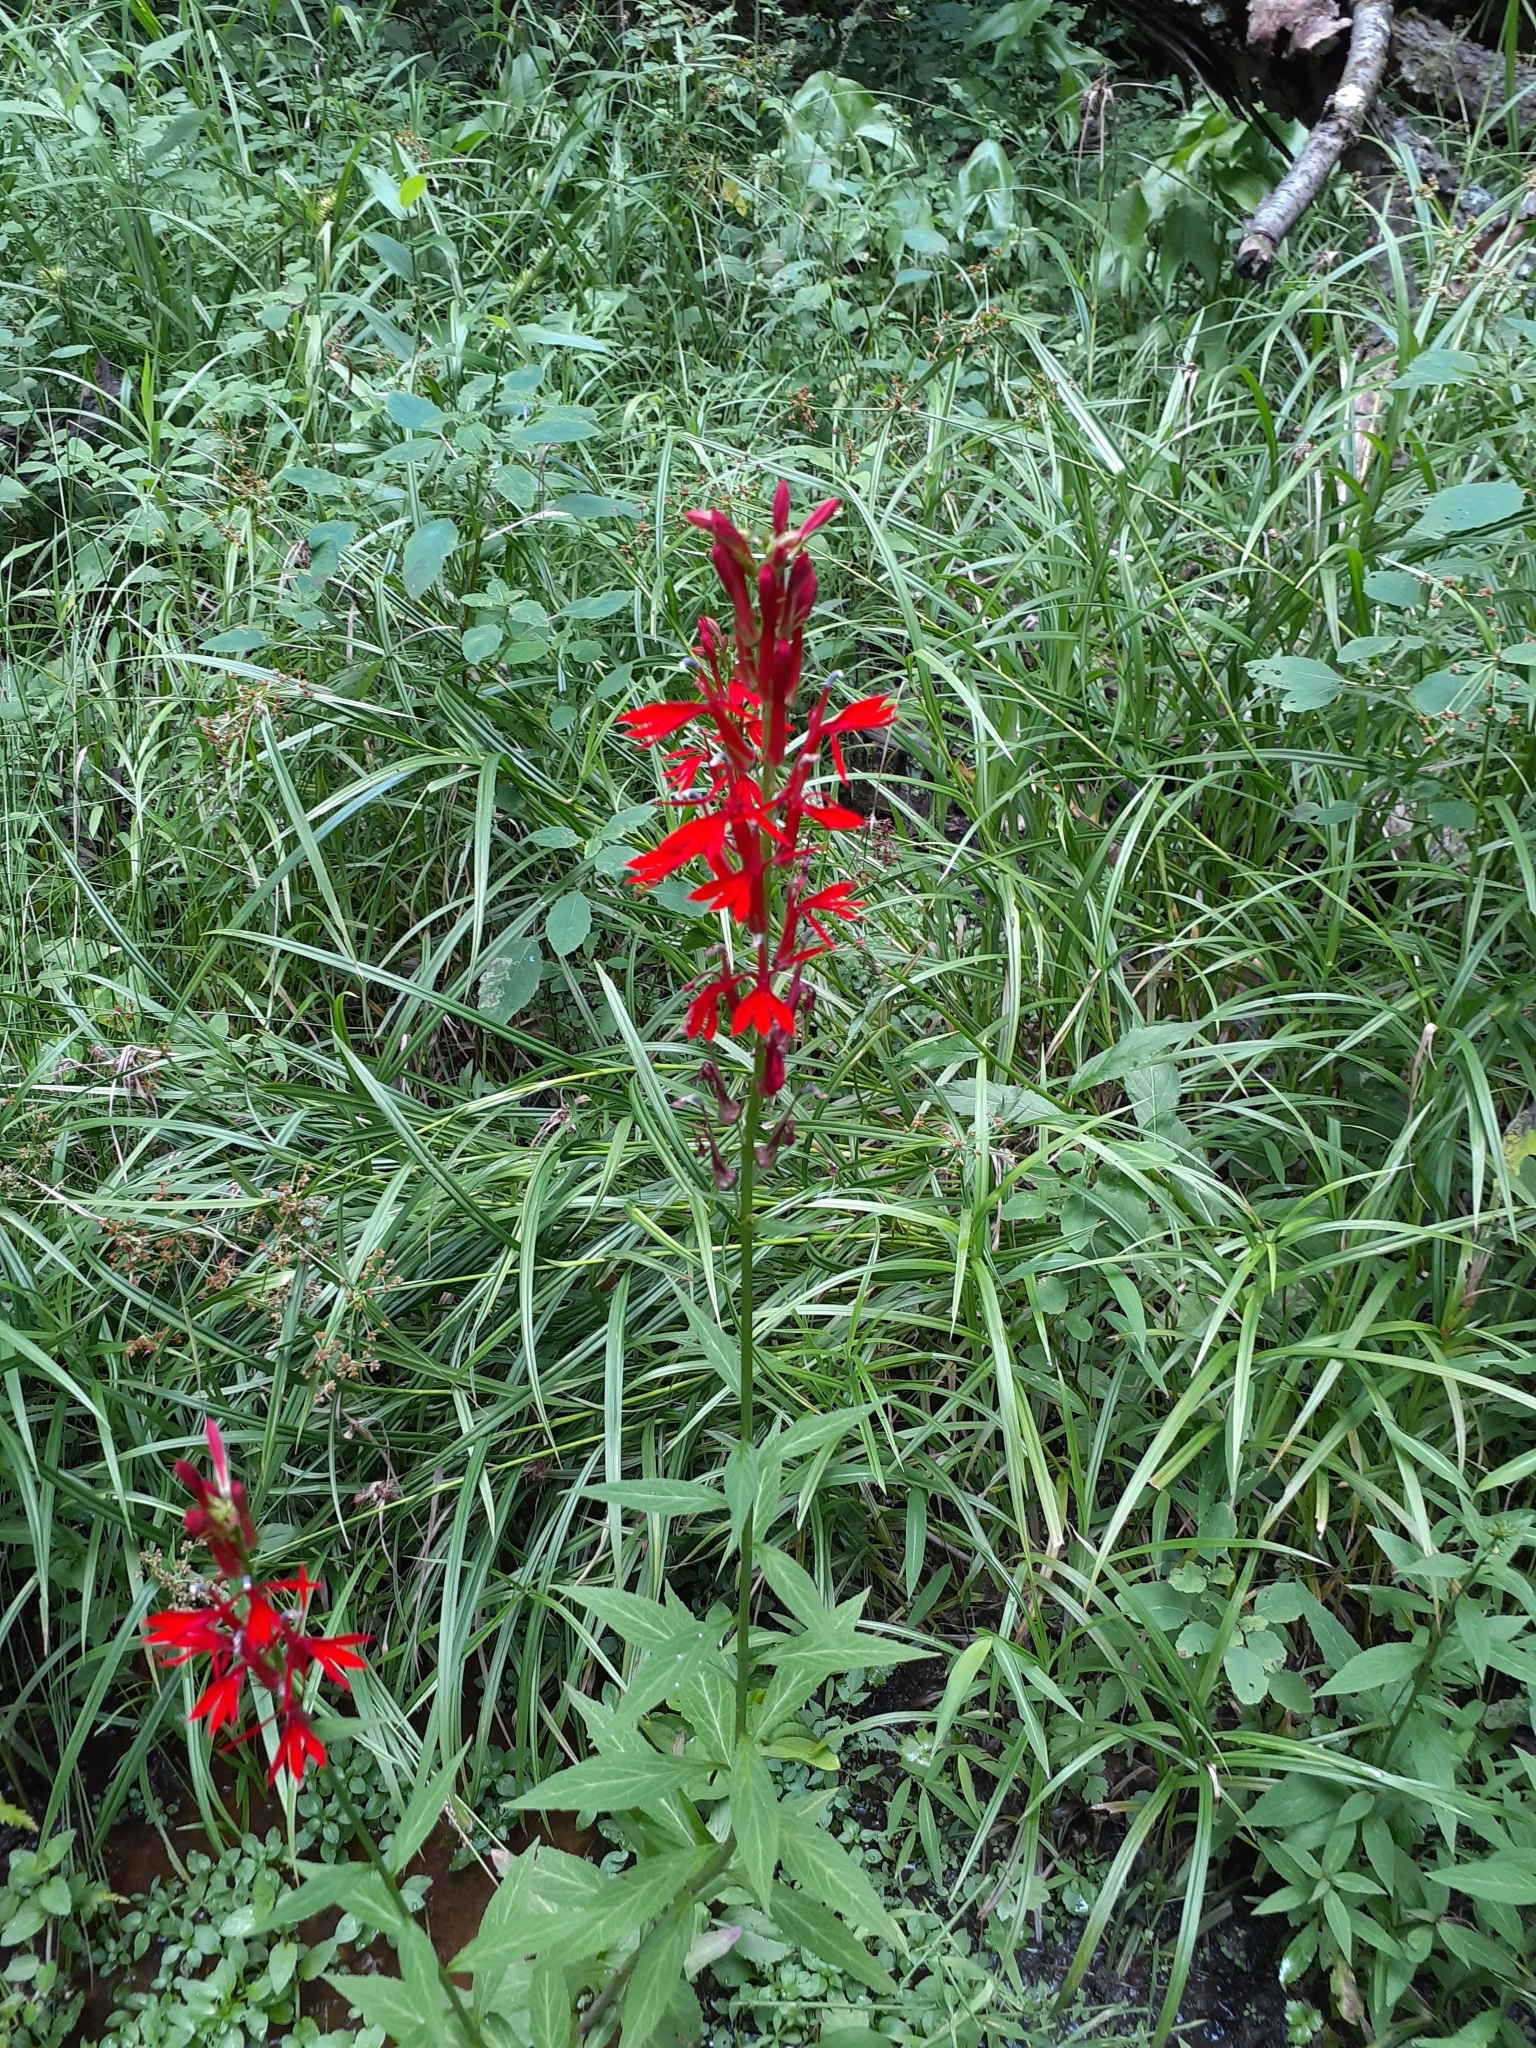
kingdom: Plantae
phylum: Tracheophyta
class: Magnoliopsida
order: Asterales
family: Campanulaceae
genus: Lobelia
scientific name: Lobelia cardinalis
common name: Cardinal flower
